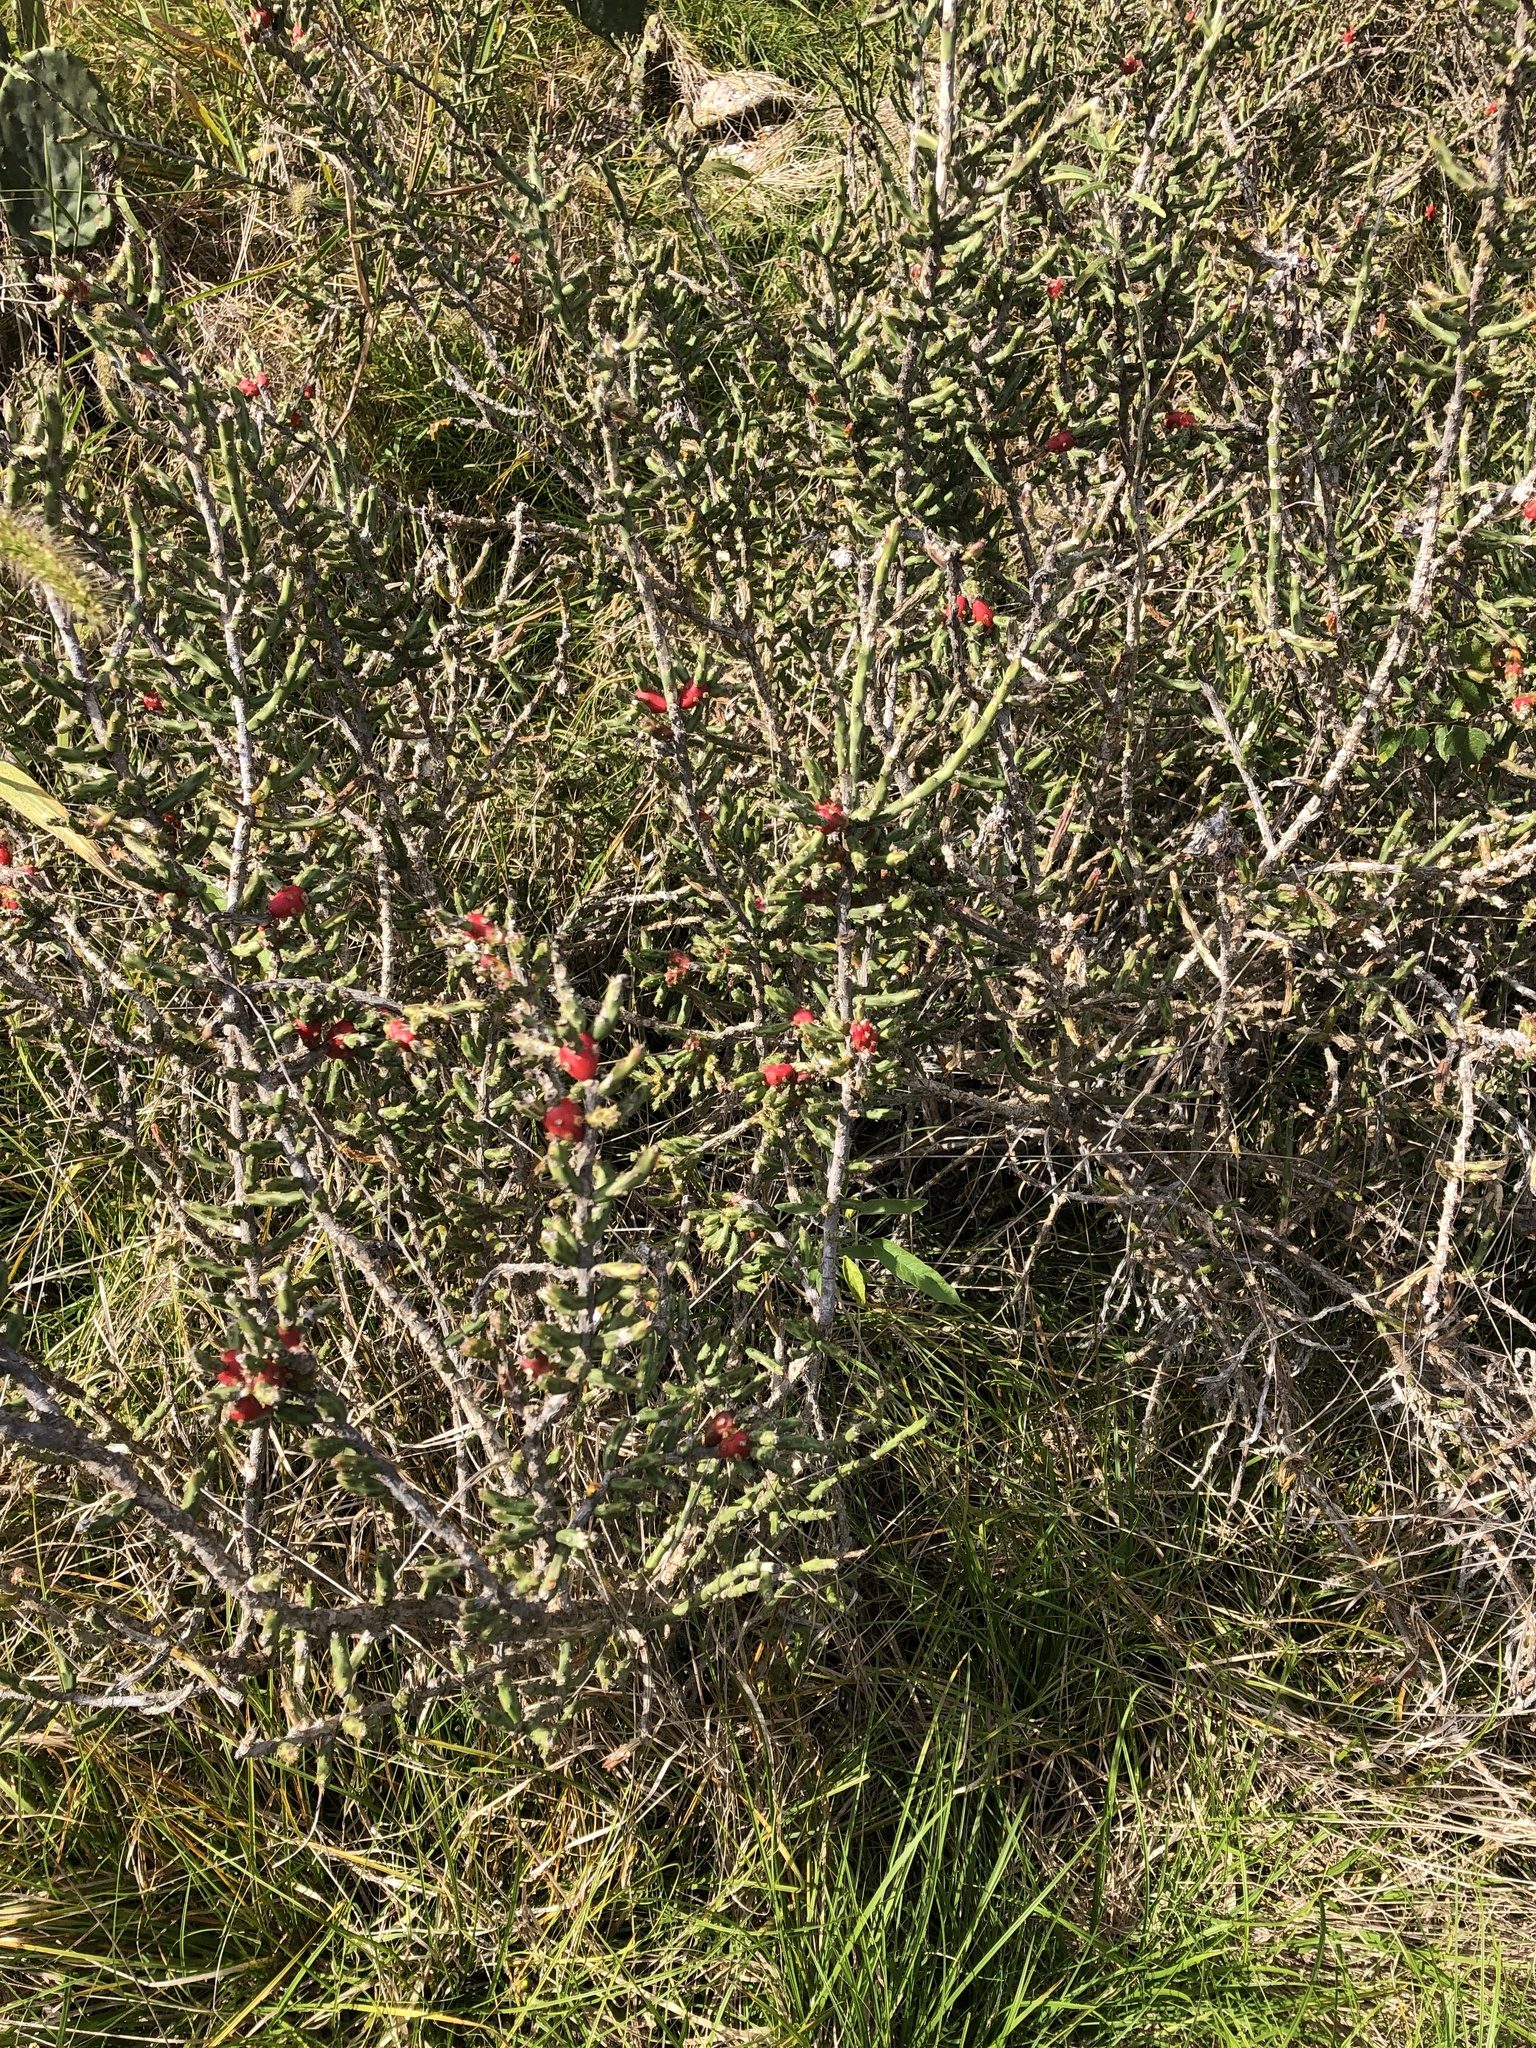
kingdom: Plantae
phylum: Tracheophyta
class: Magnoliopsida
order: Caryophyllales
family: Cactaceae
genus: Cylindropuntia
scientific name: Cylindropuntia leptocaulis
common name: Christmas cactus
